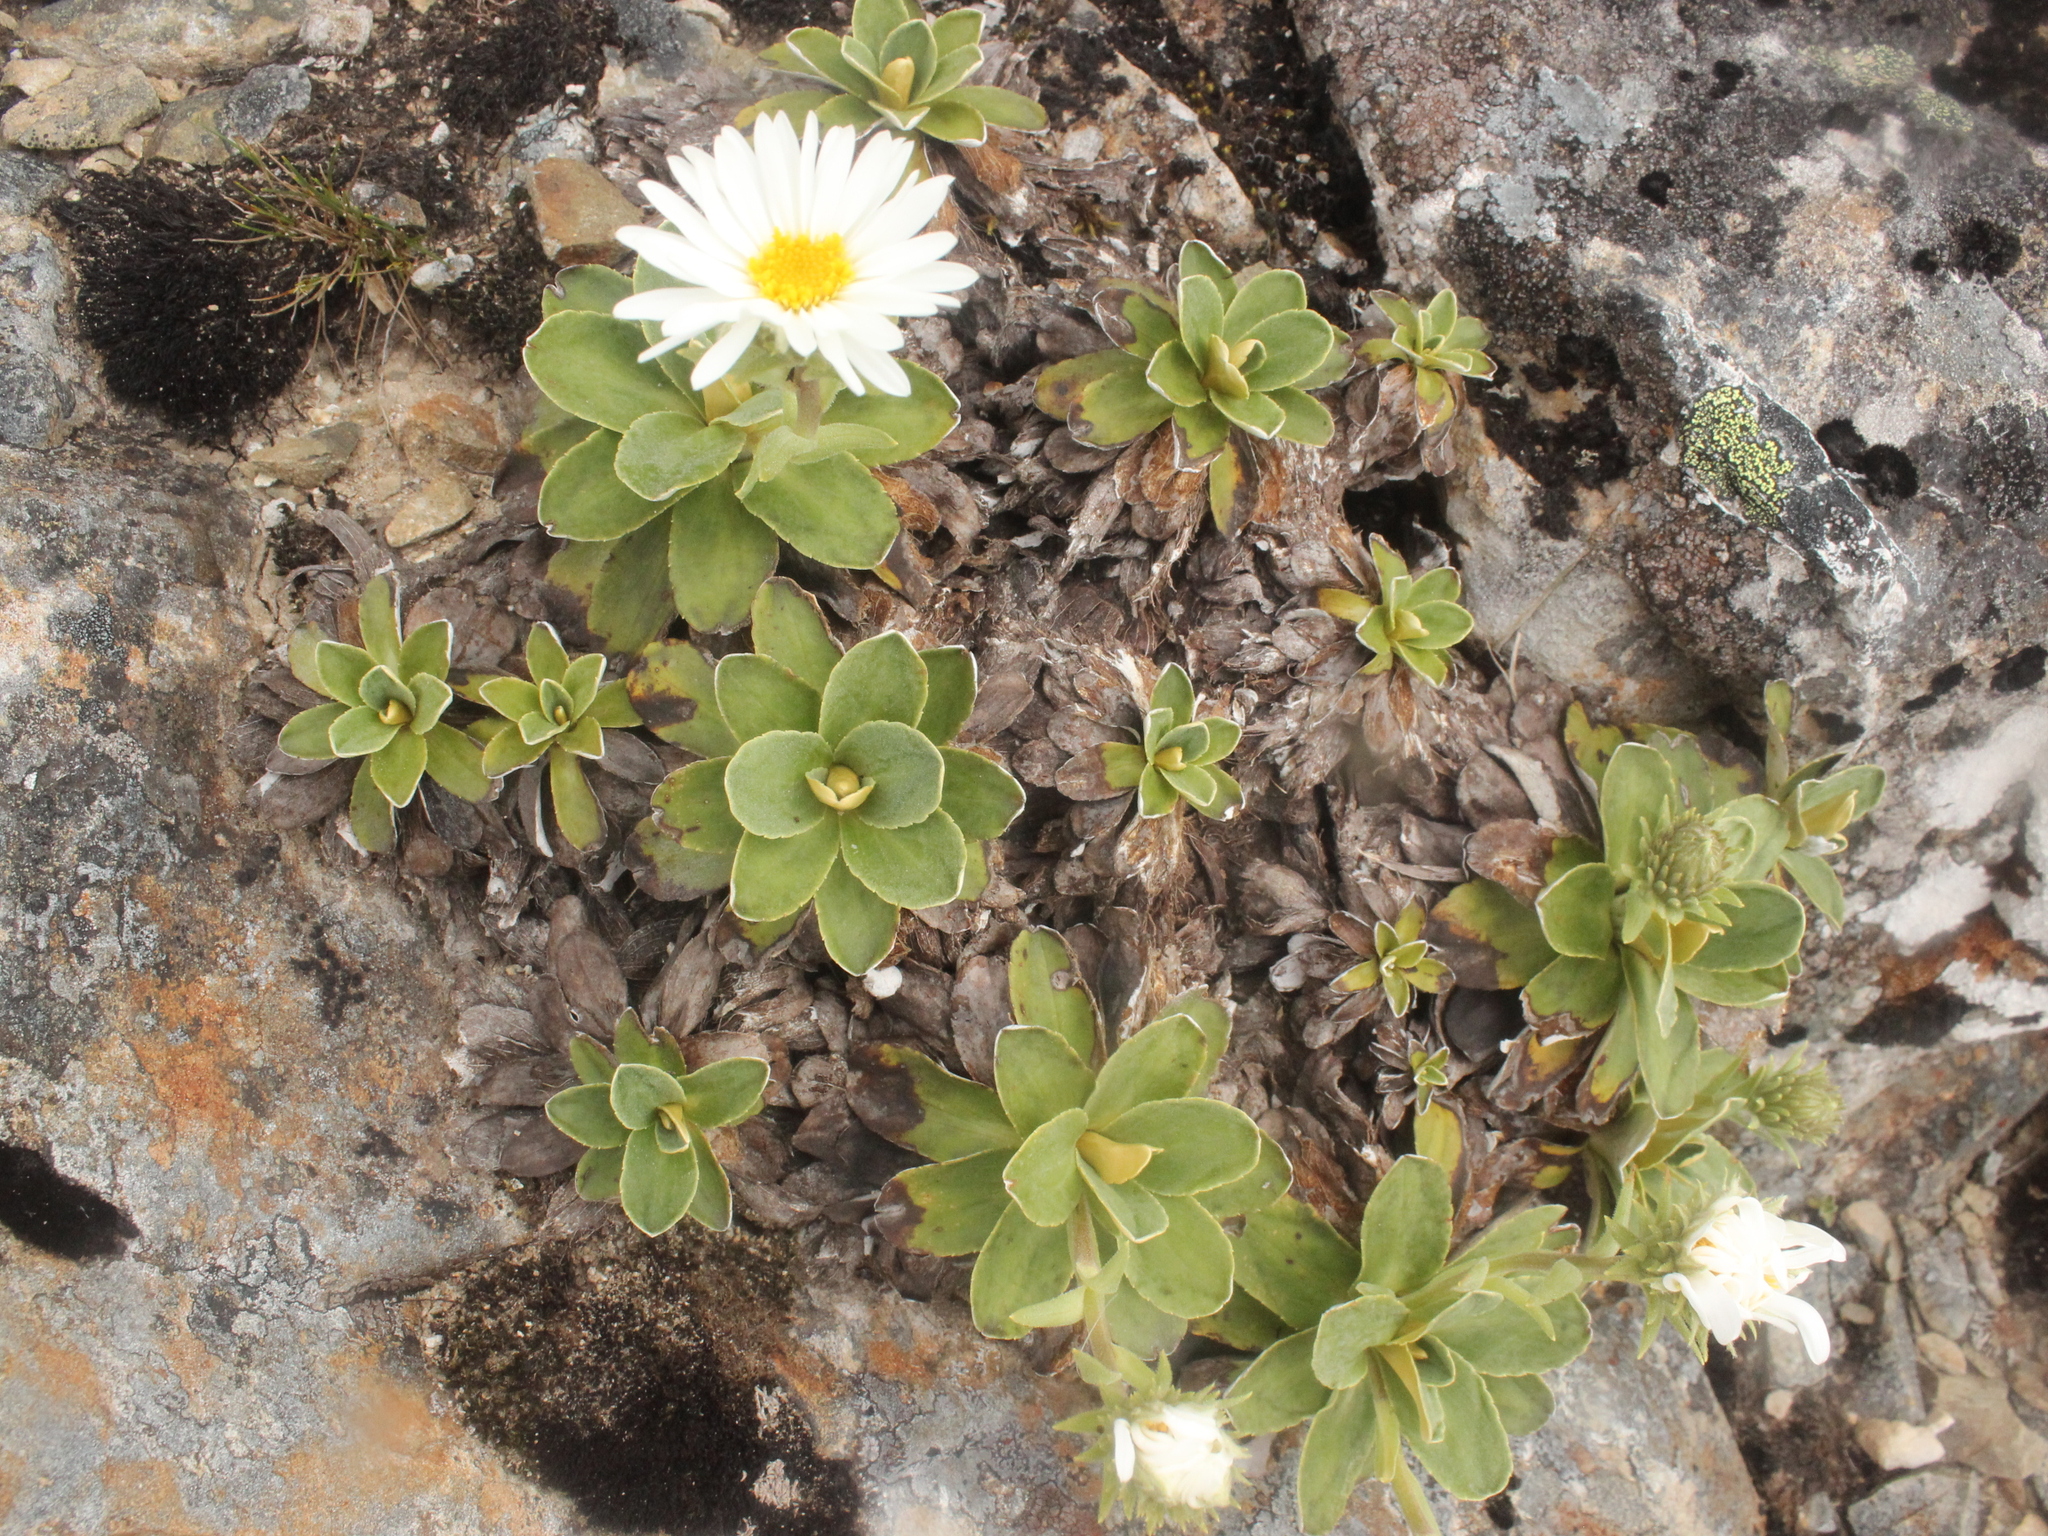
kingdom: Plantae
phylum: Tracheophyta
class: Magnoliopsida
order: Asterales
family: Asteraceae
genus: Celmisia
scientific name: Celmisia hieraciifolia
